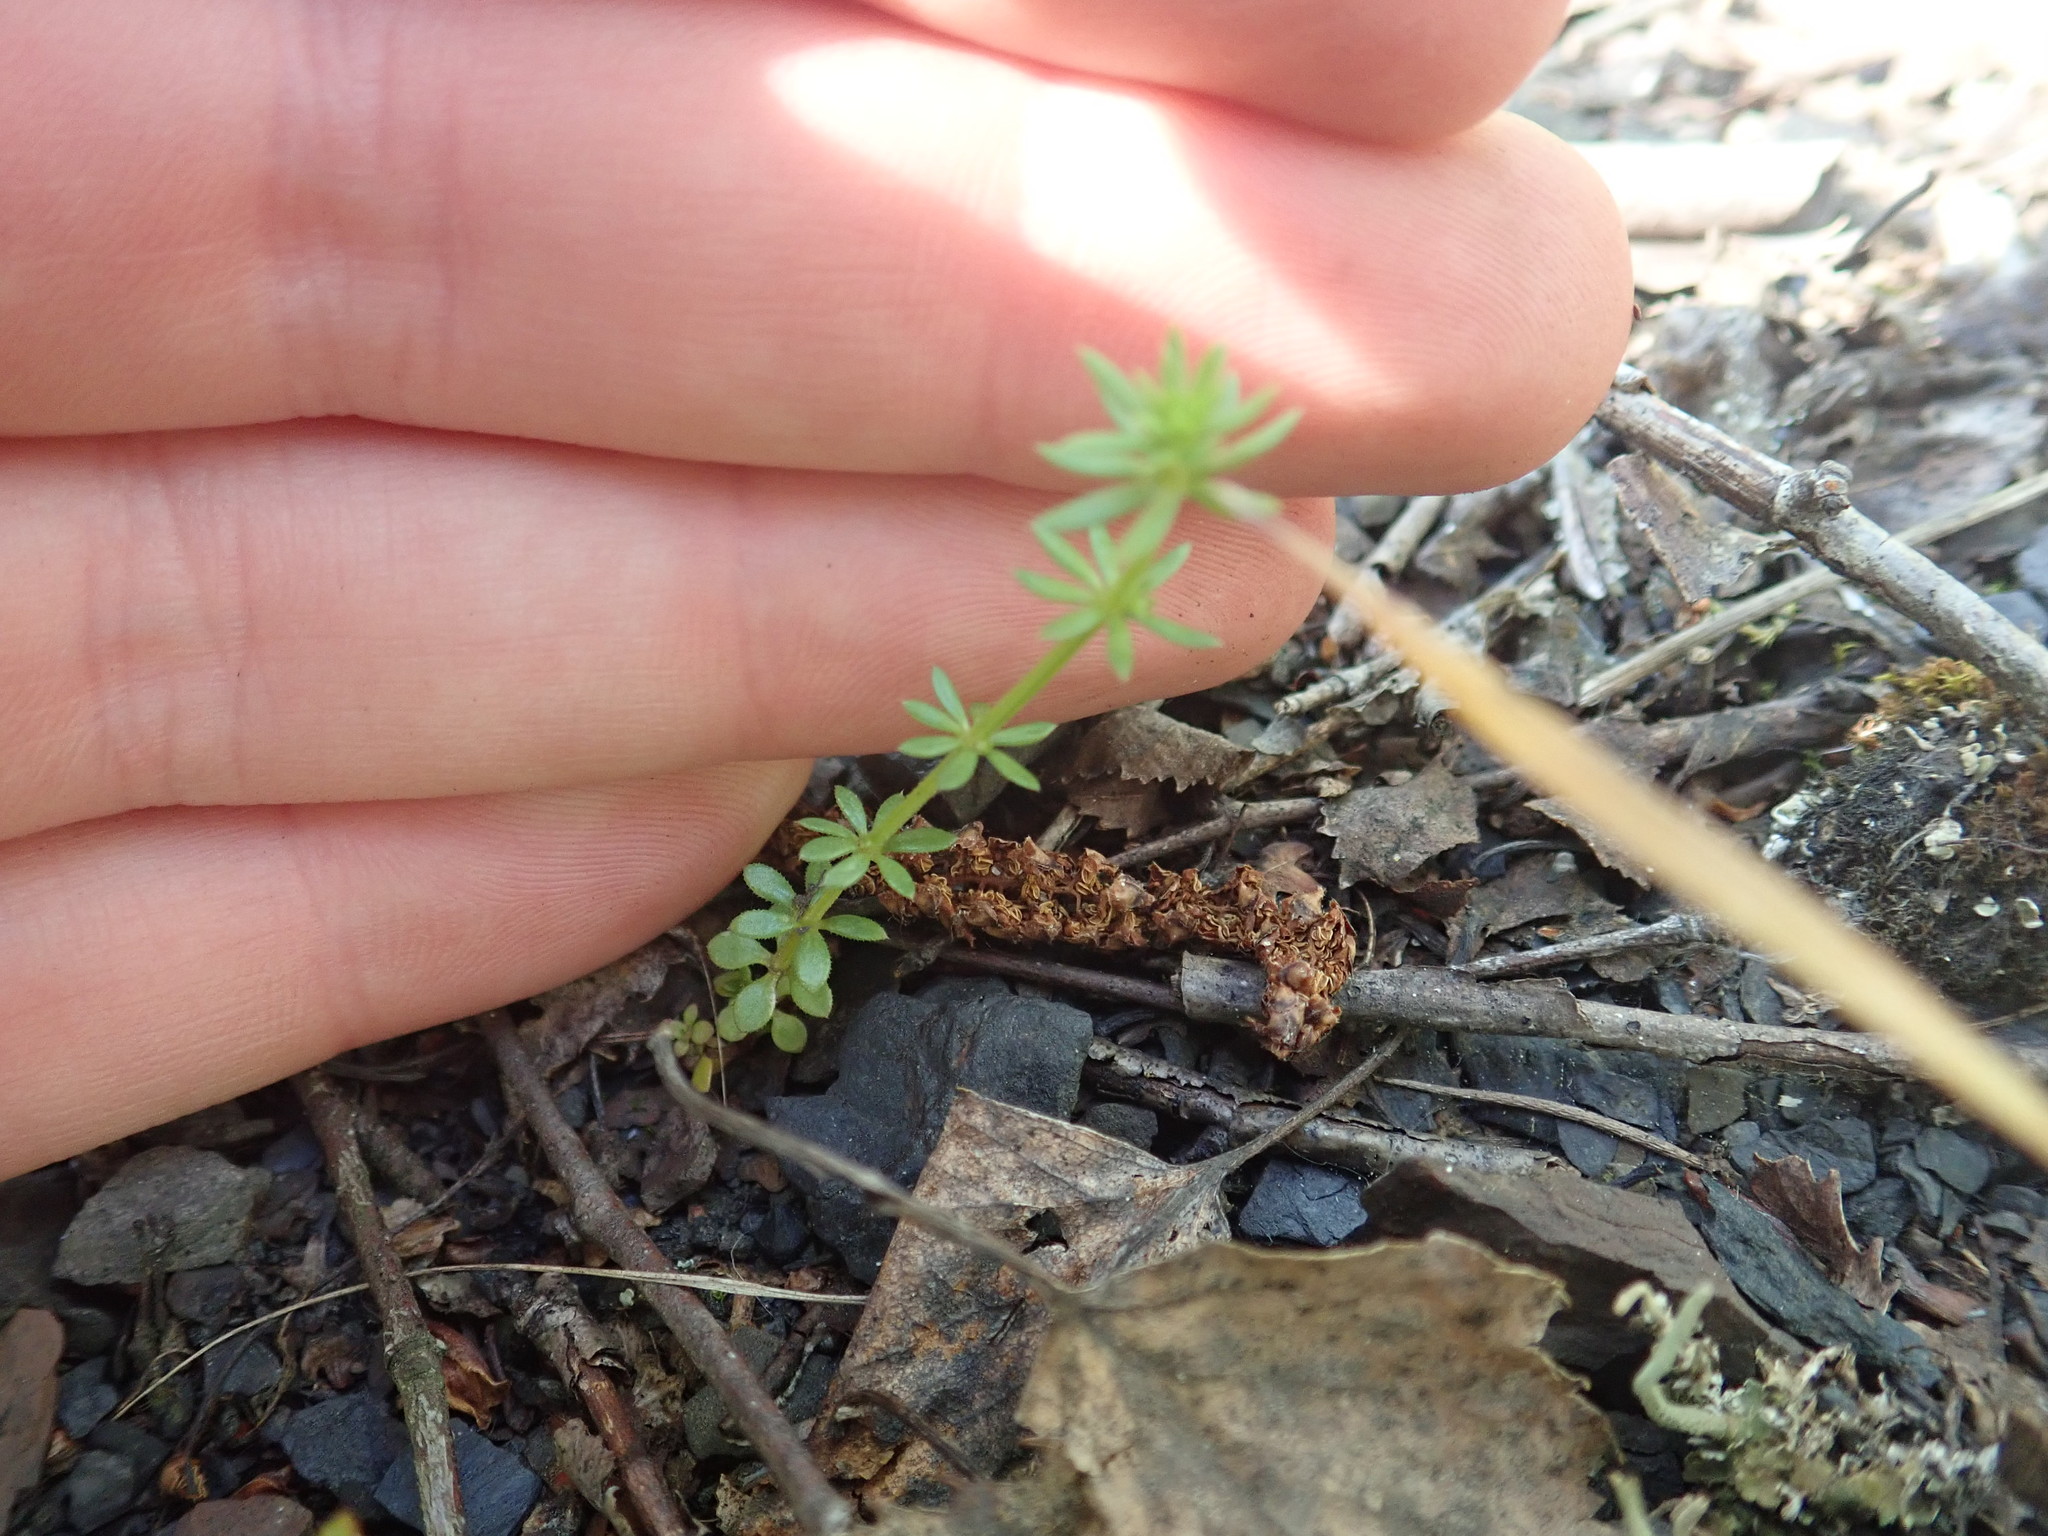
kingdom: Plantae
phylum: Tracheophyta
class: Magnoliopsida
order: Gentianales
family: Rubiaceae
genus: Galium
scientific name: Galium parisiense
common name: Wall bedstraw
